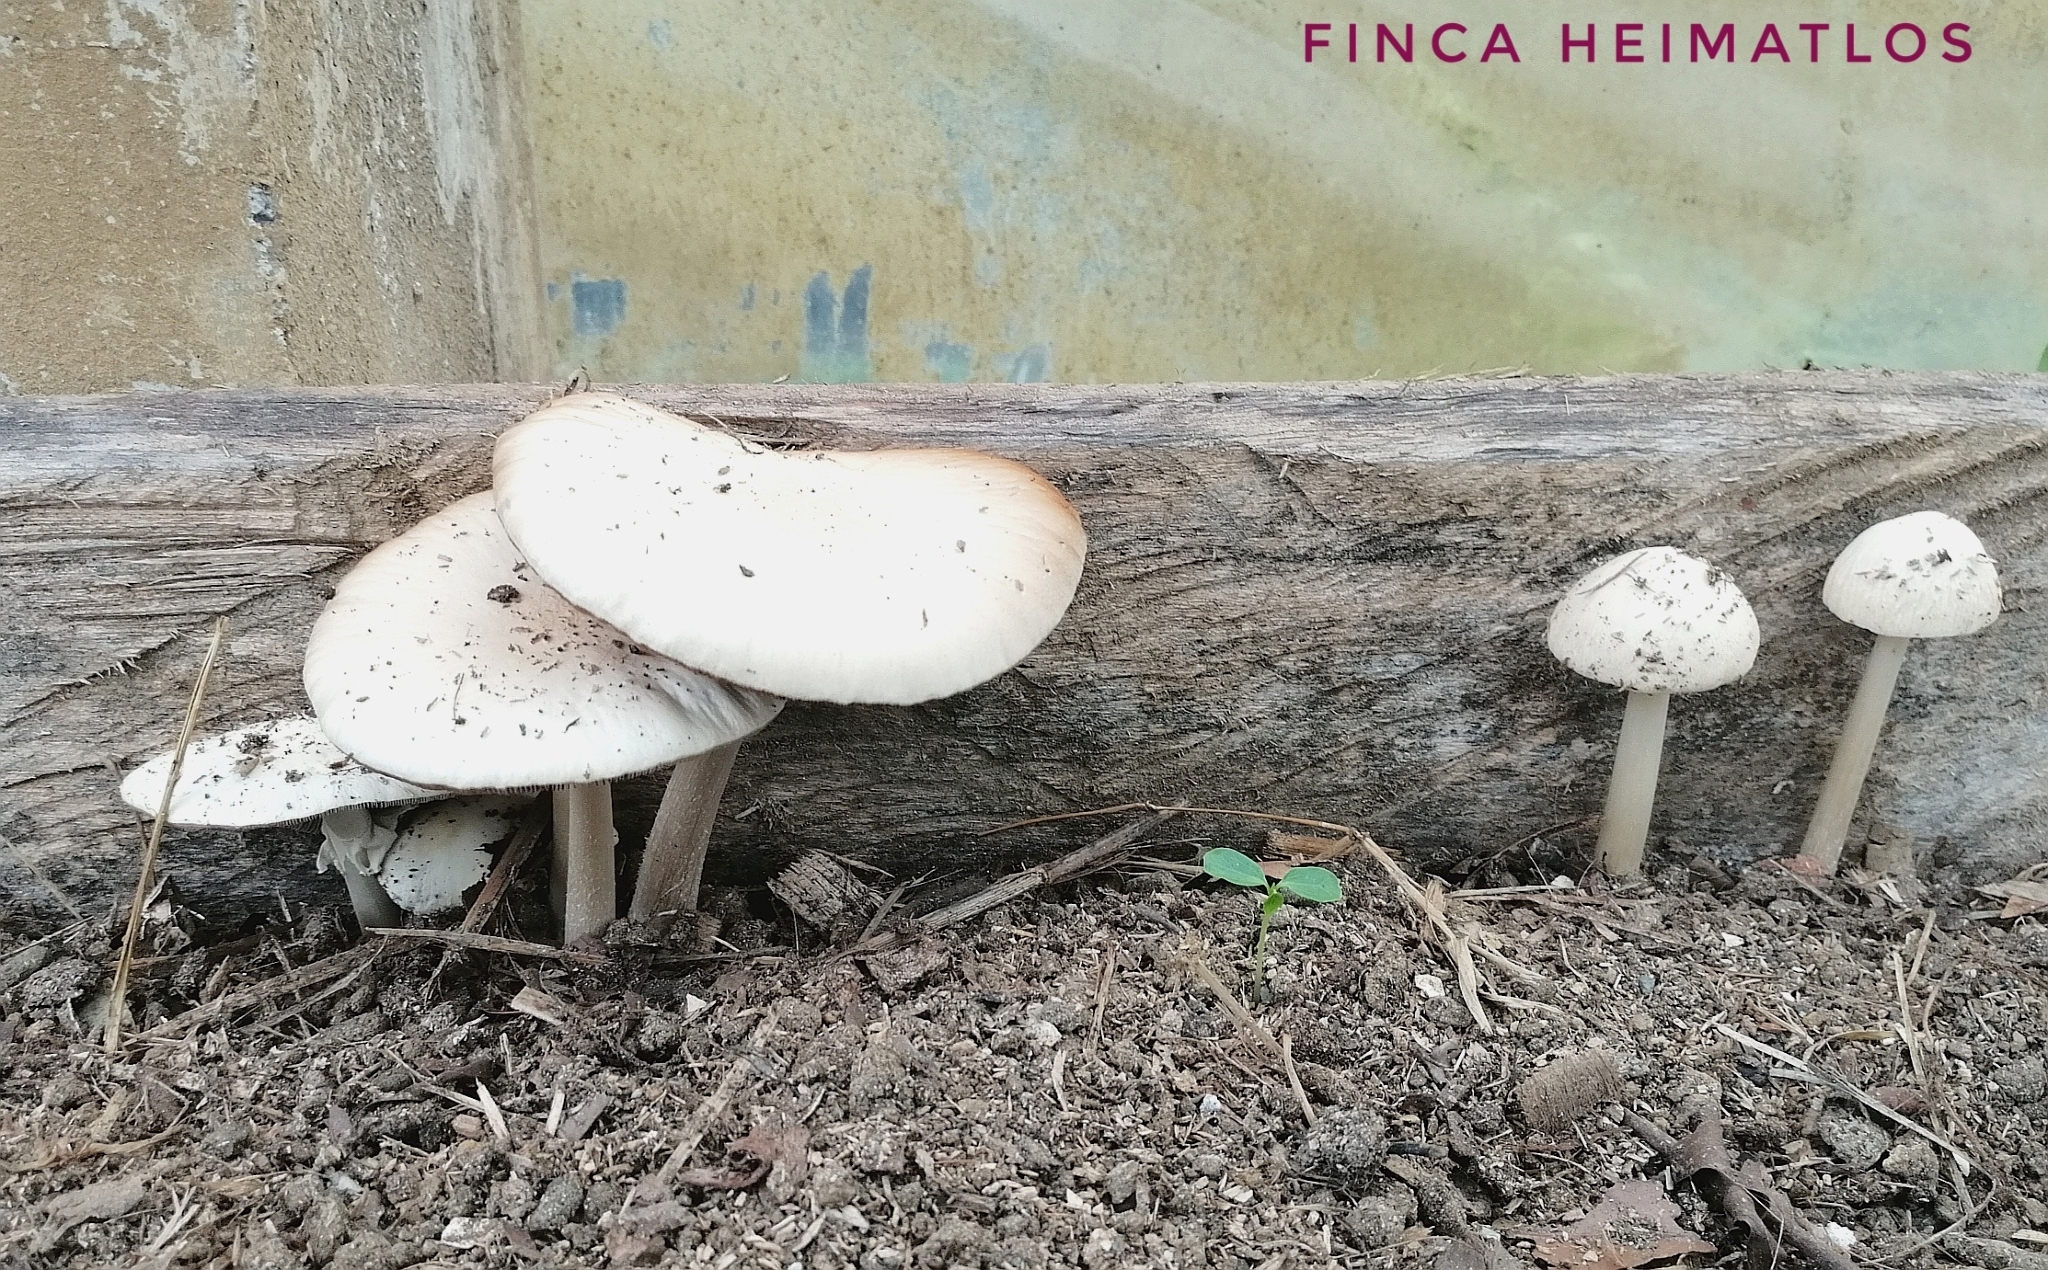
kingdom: Fungi
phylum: Basidiomycota
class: Agaricomycetes
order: Agaricales
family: Strophariaceae
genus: Agrocybe
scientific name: Agrocybe rivulosa
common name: Wrinkled fieldcap
